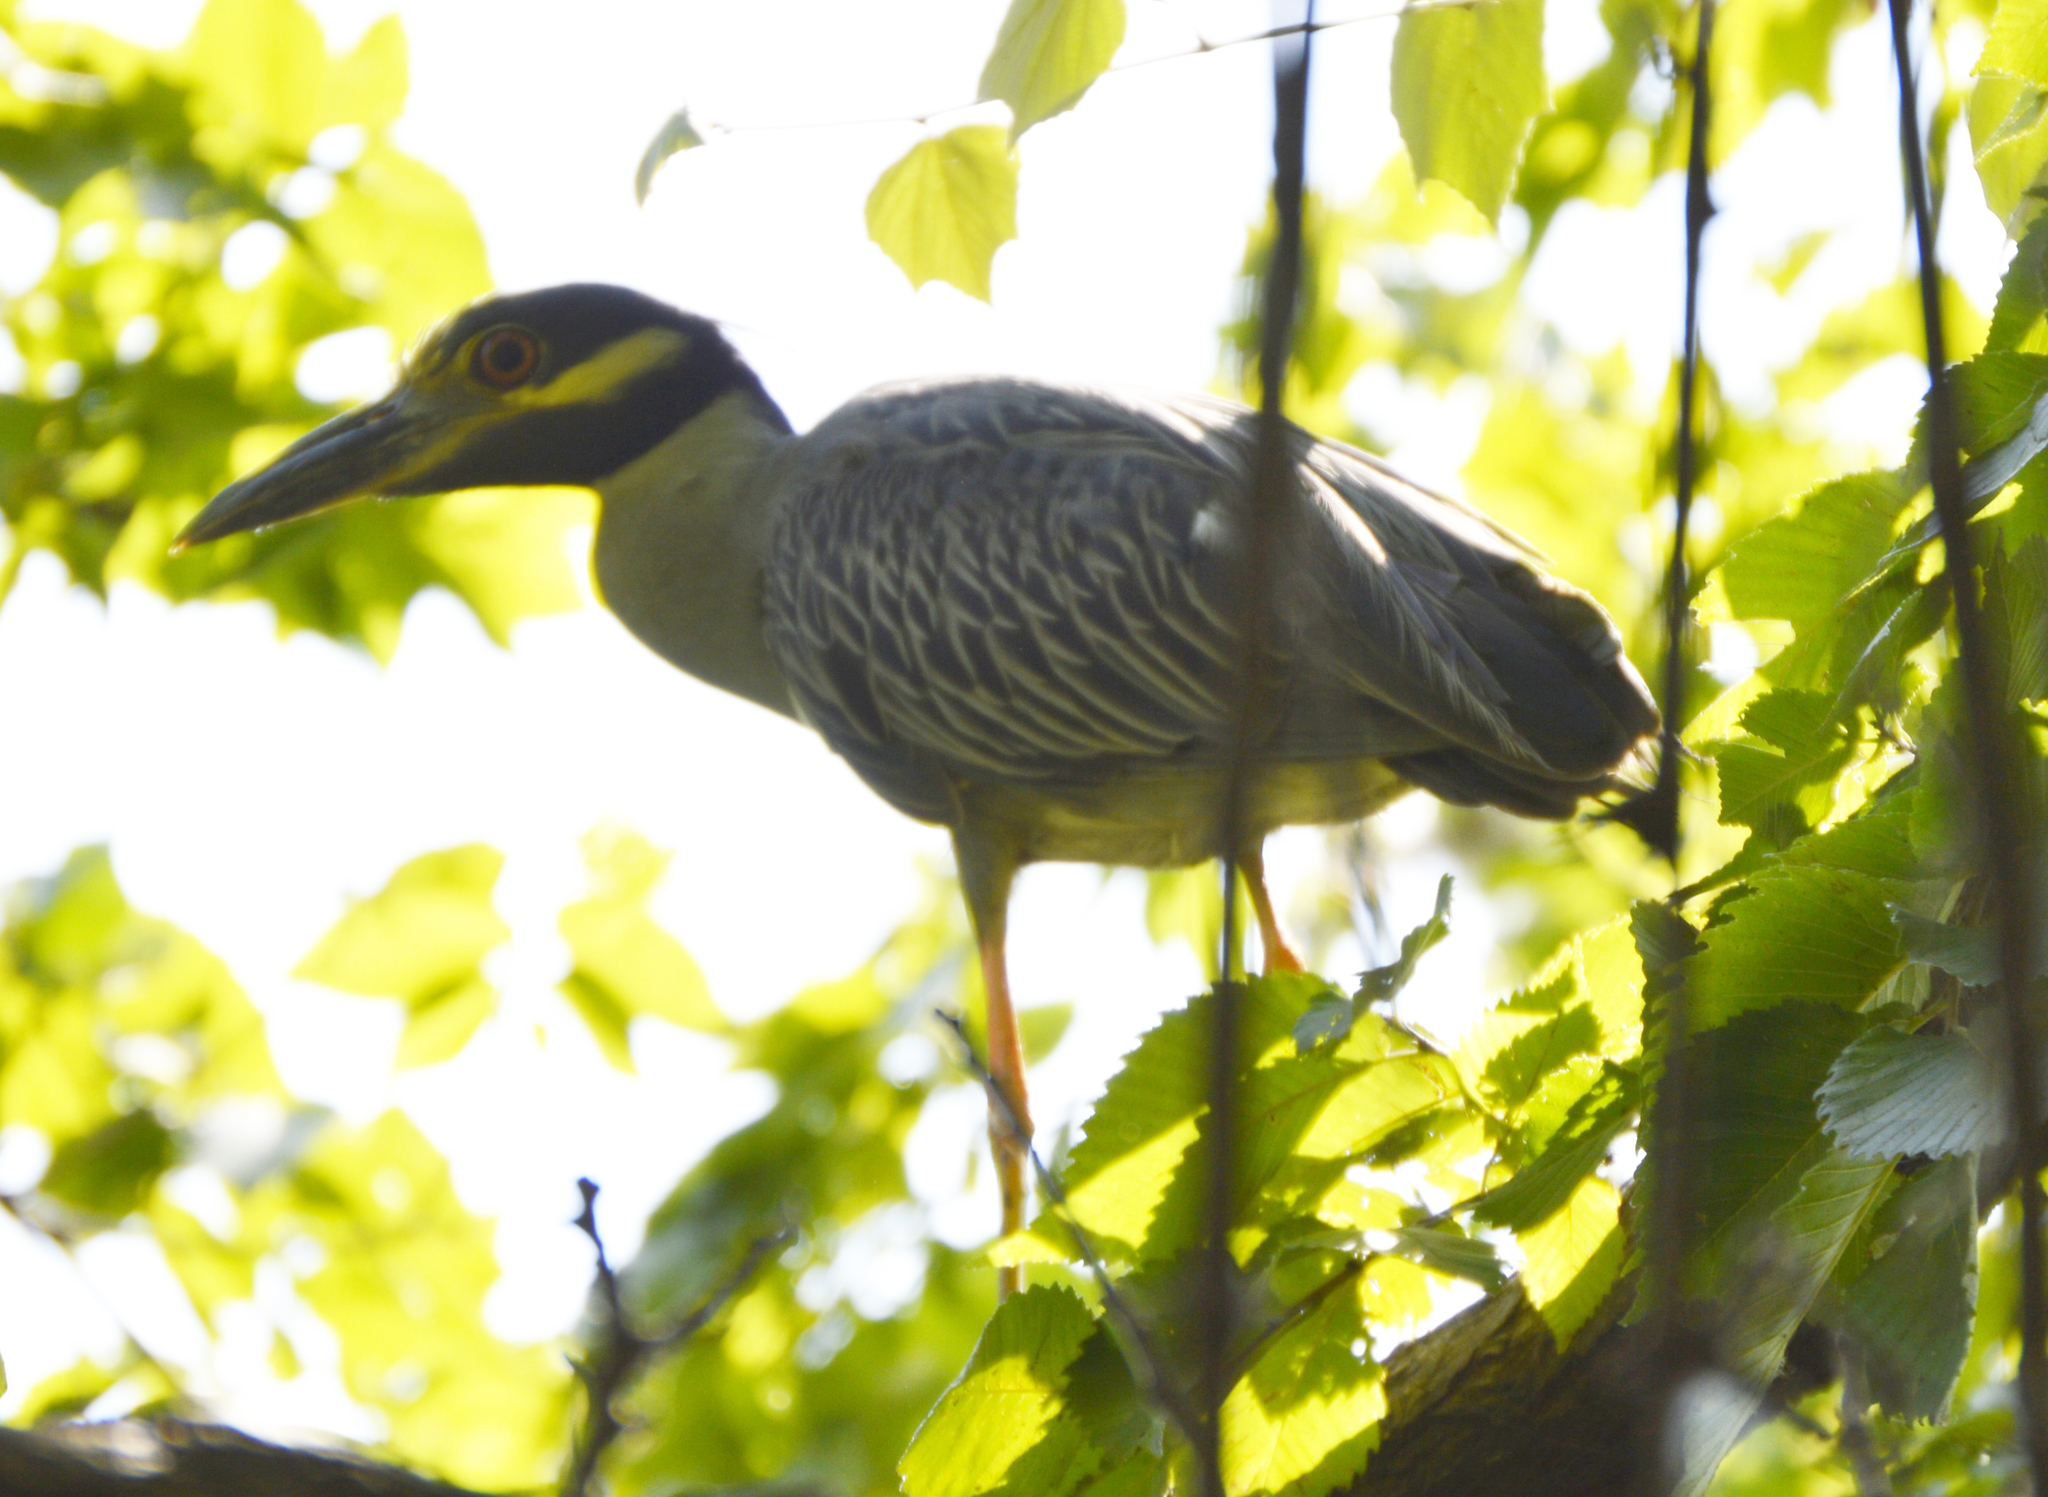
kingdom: Animalia
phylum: Chordata
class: Aves
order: Pelecaniformes
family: Ardeidae
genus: Nyctanassa
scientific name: Nyctanassa violacea
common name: Yellow-crowned night heron
